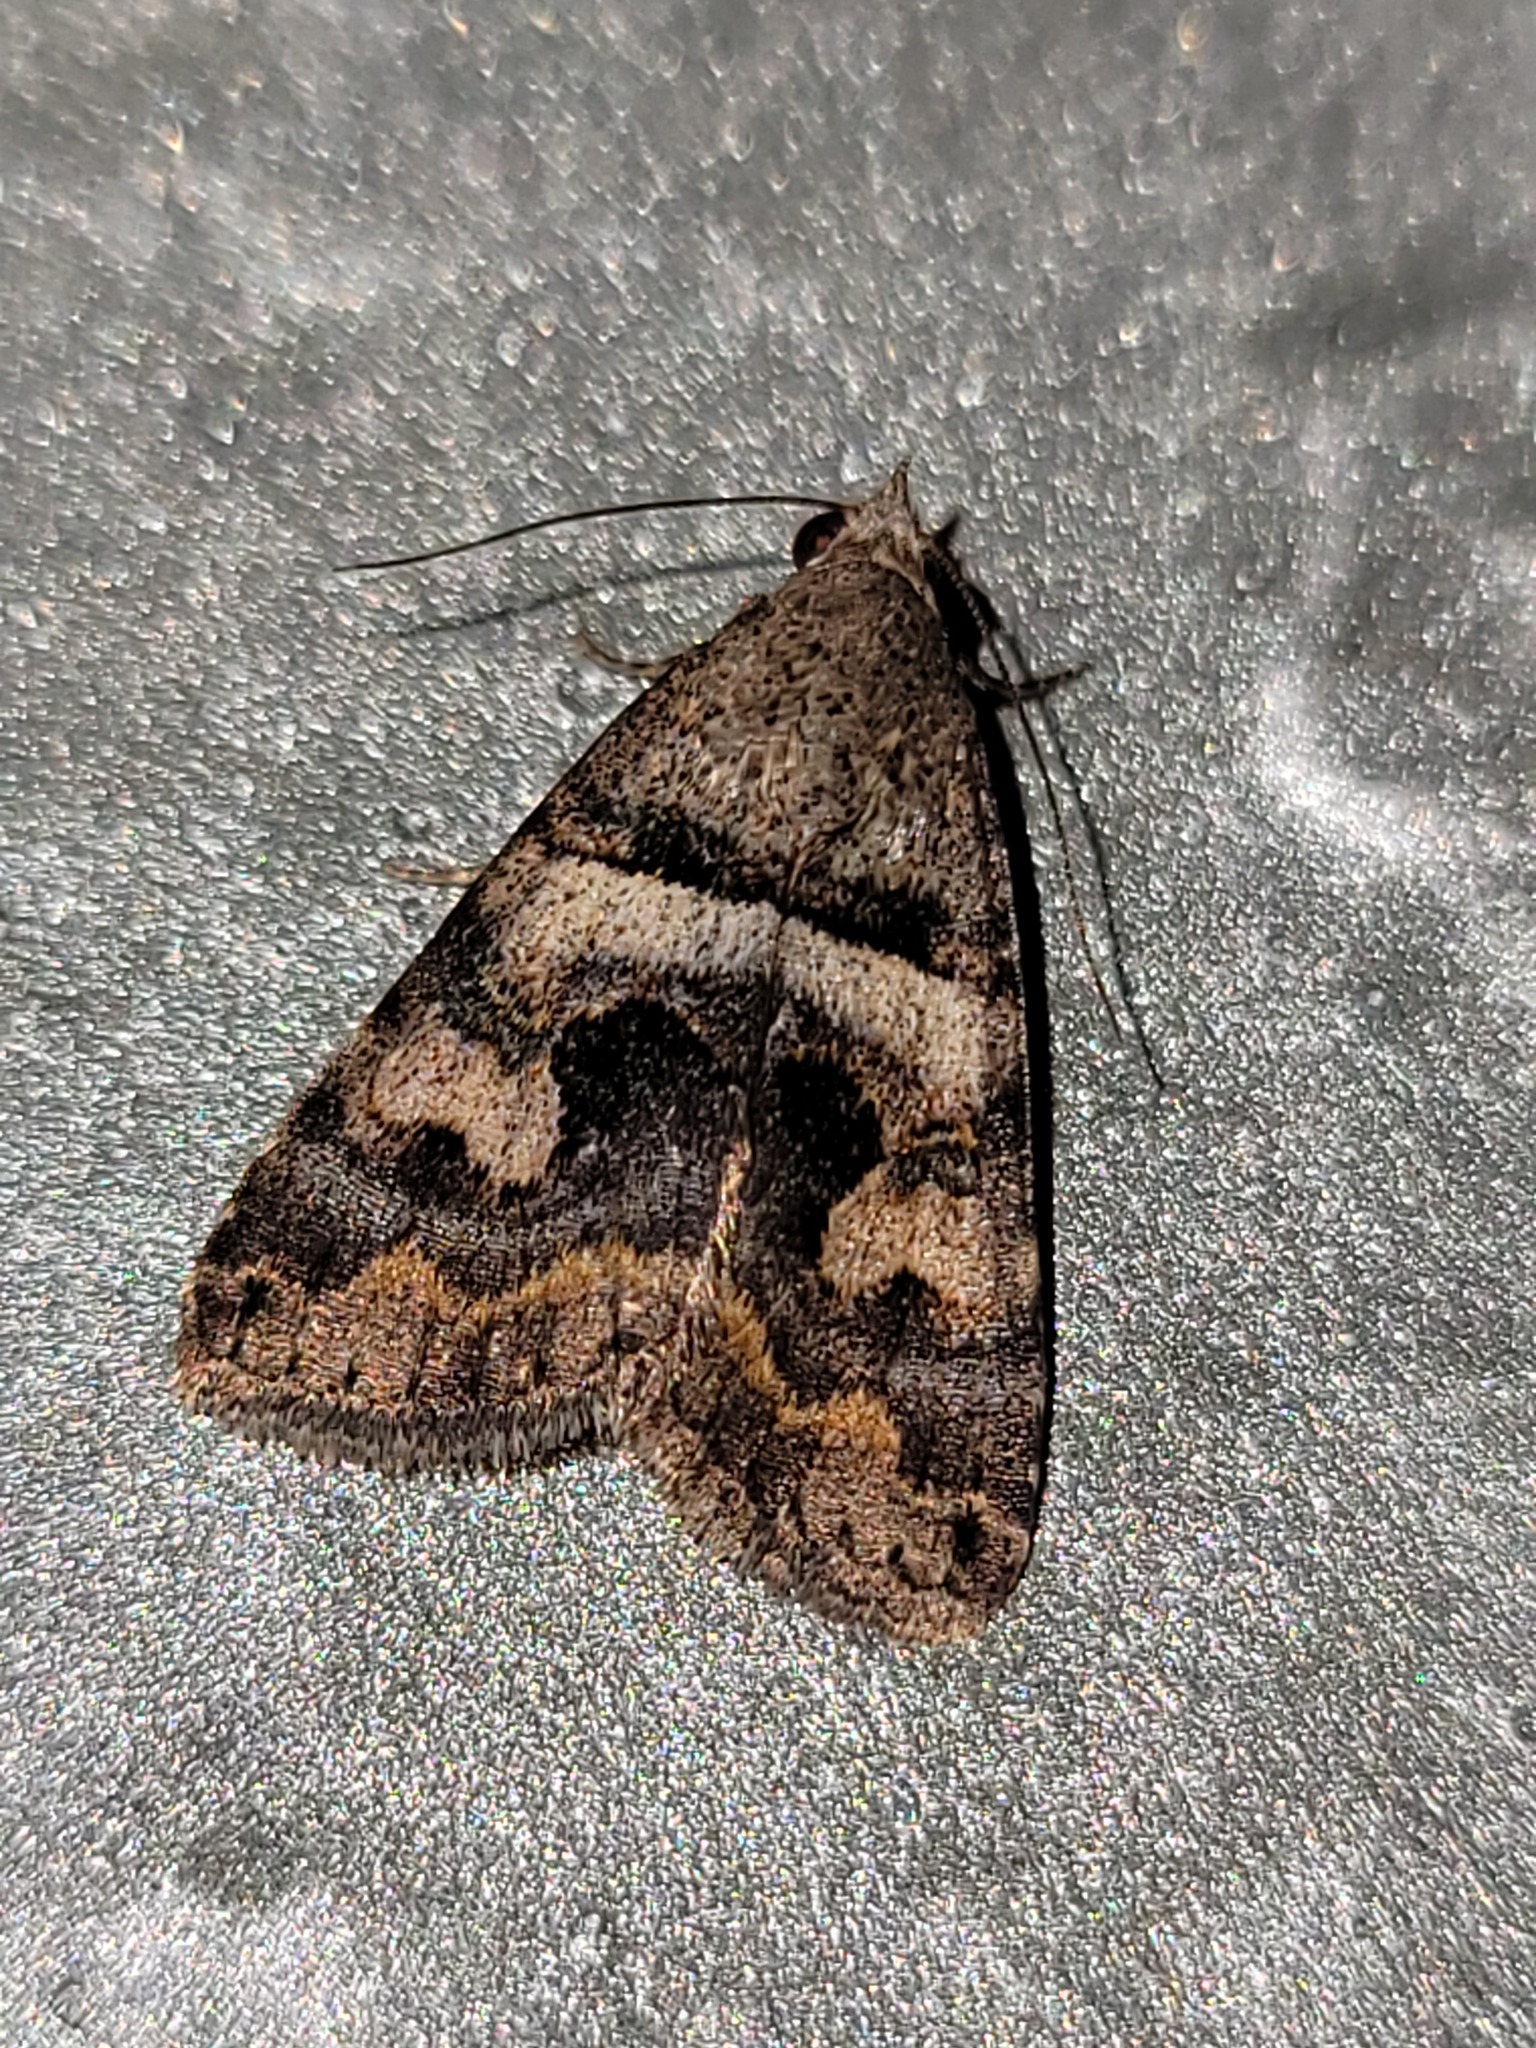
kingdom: Animalia
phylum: Arthropoda
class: Insecta
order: Lepidoptera
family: Erebidae
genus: Bulia
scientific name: Bulia deducta
